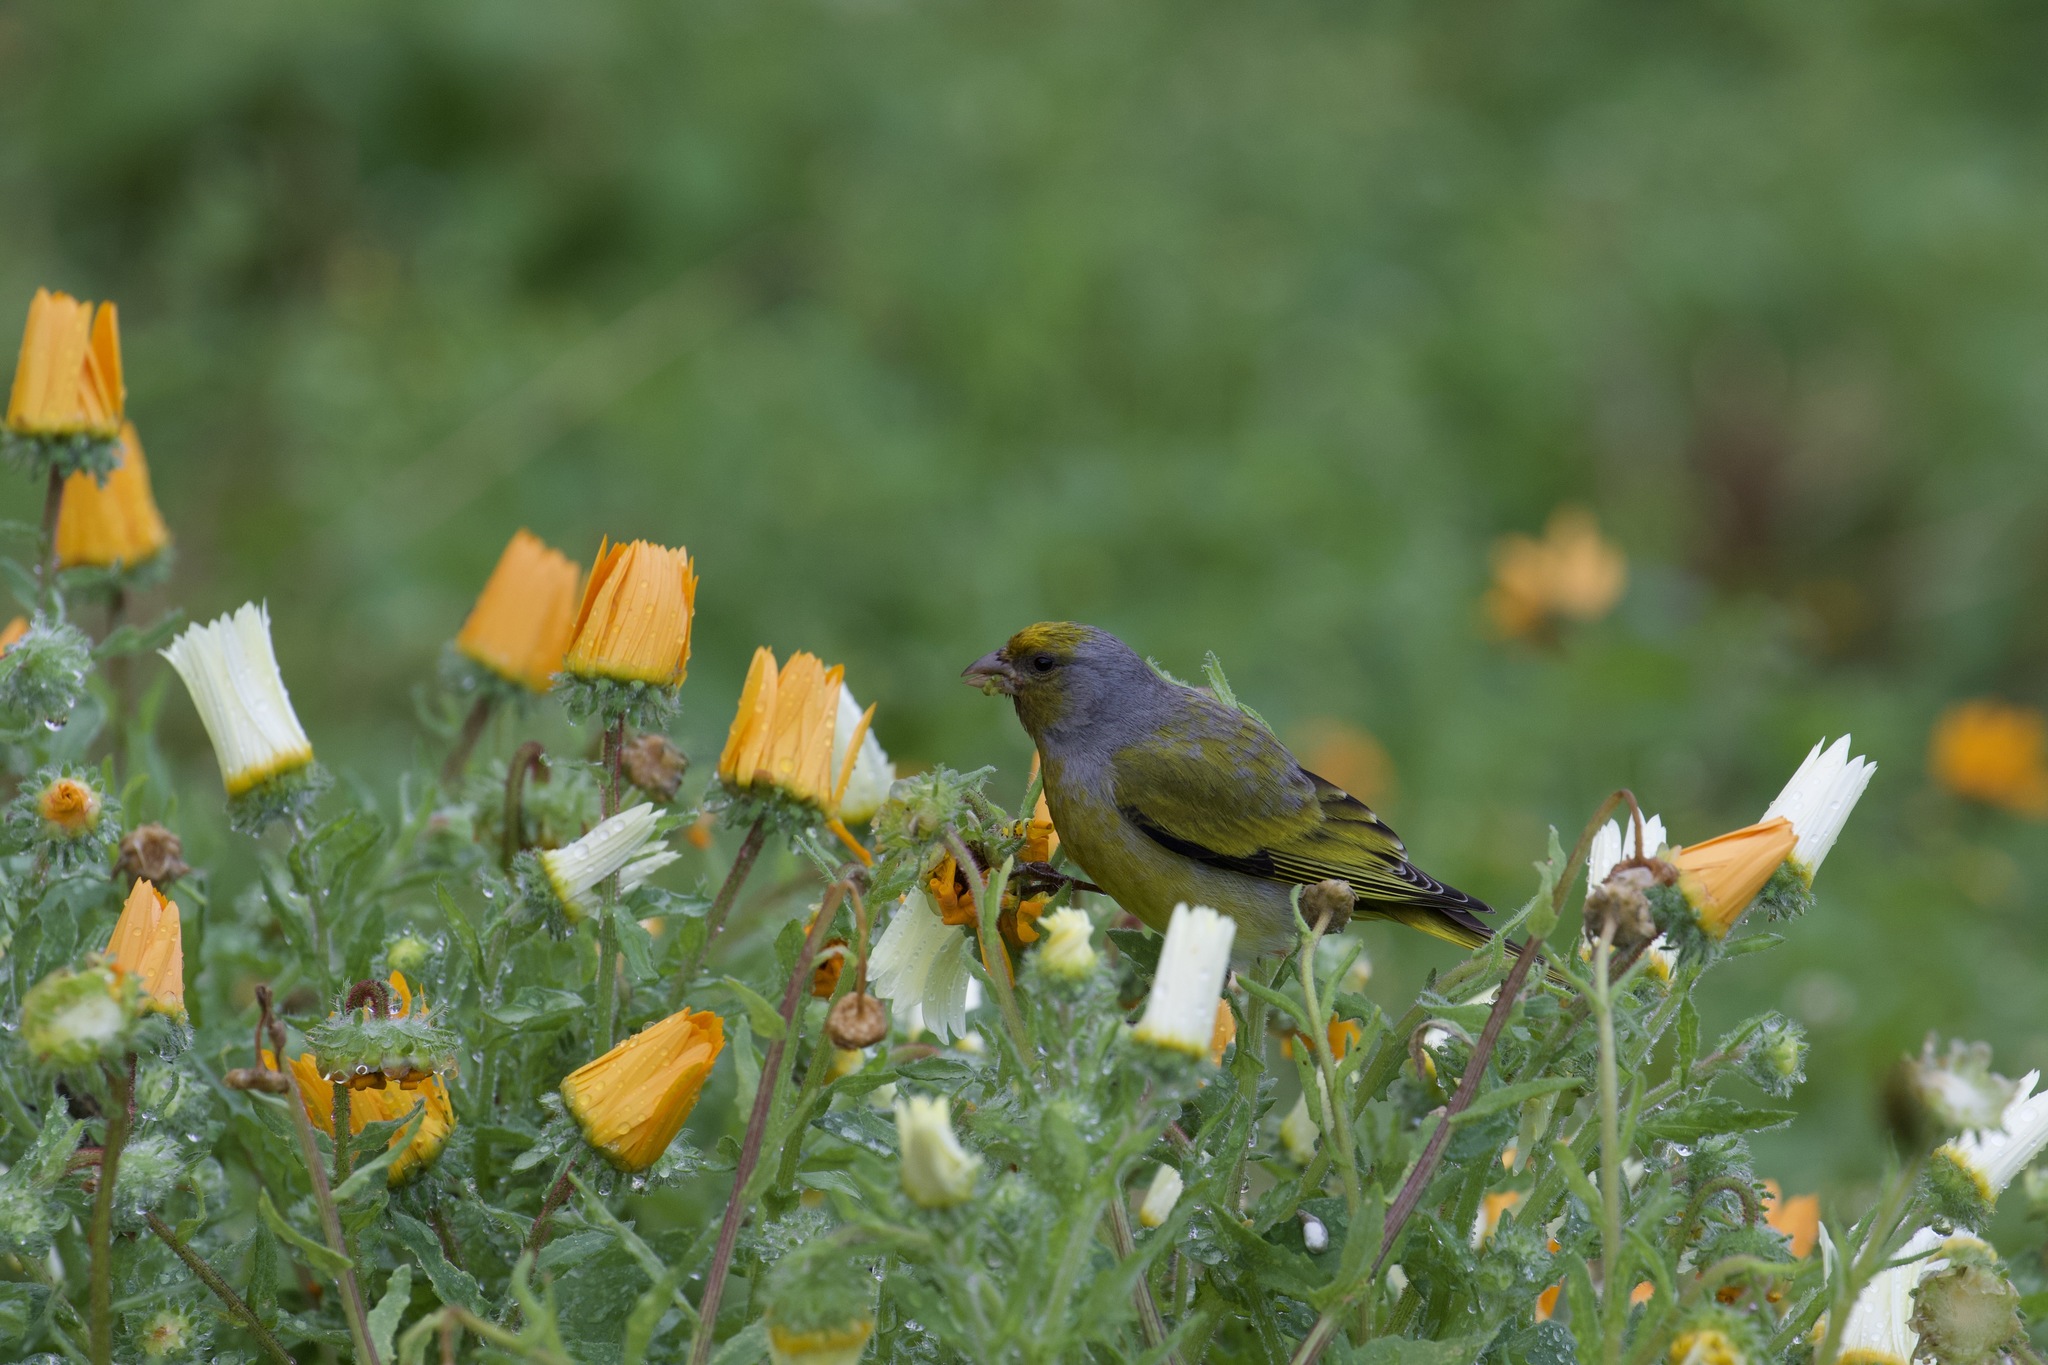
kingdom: Animalia
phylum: Chordata
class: Aves
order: Passeriformes
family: Fringillidae
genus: Serinus
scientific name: Serinus canicollis
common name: Cape canary
